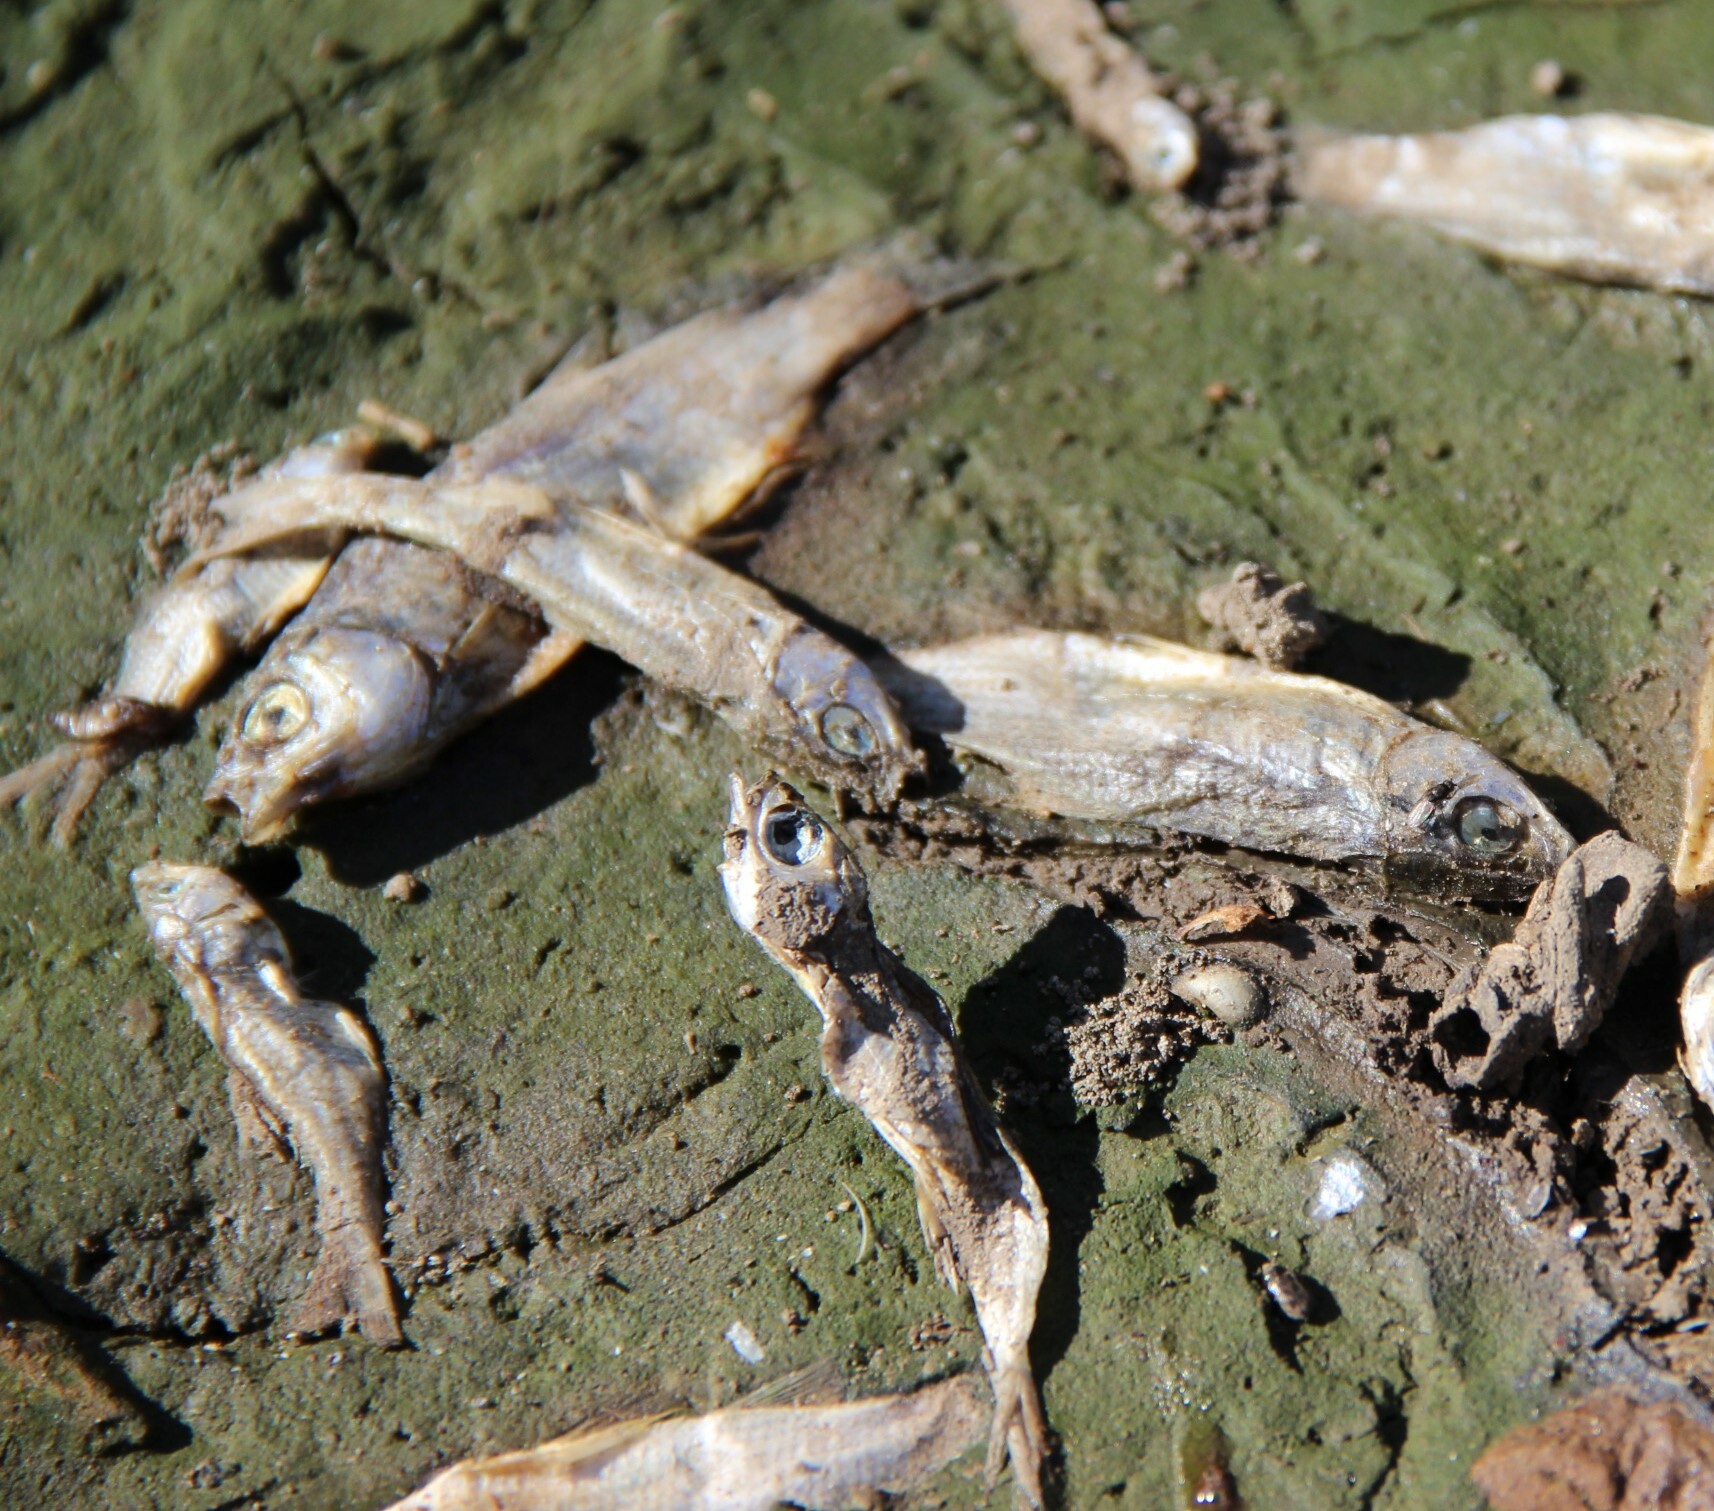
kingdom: Animalia
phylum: Chordata
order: Cypriniformes
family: Cyprinidae
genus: Alburnus
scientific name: Alburnus alburnus
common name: Bleak
